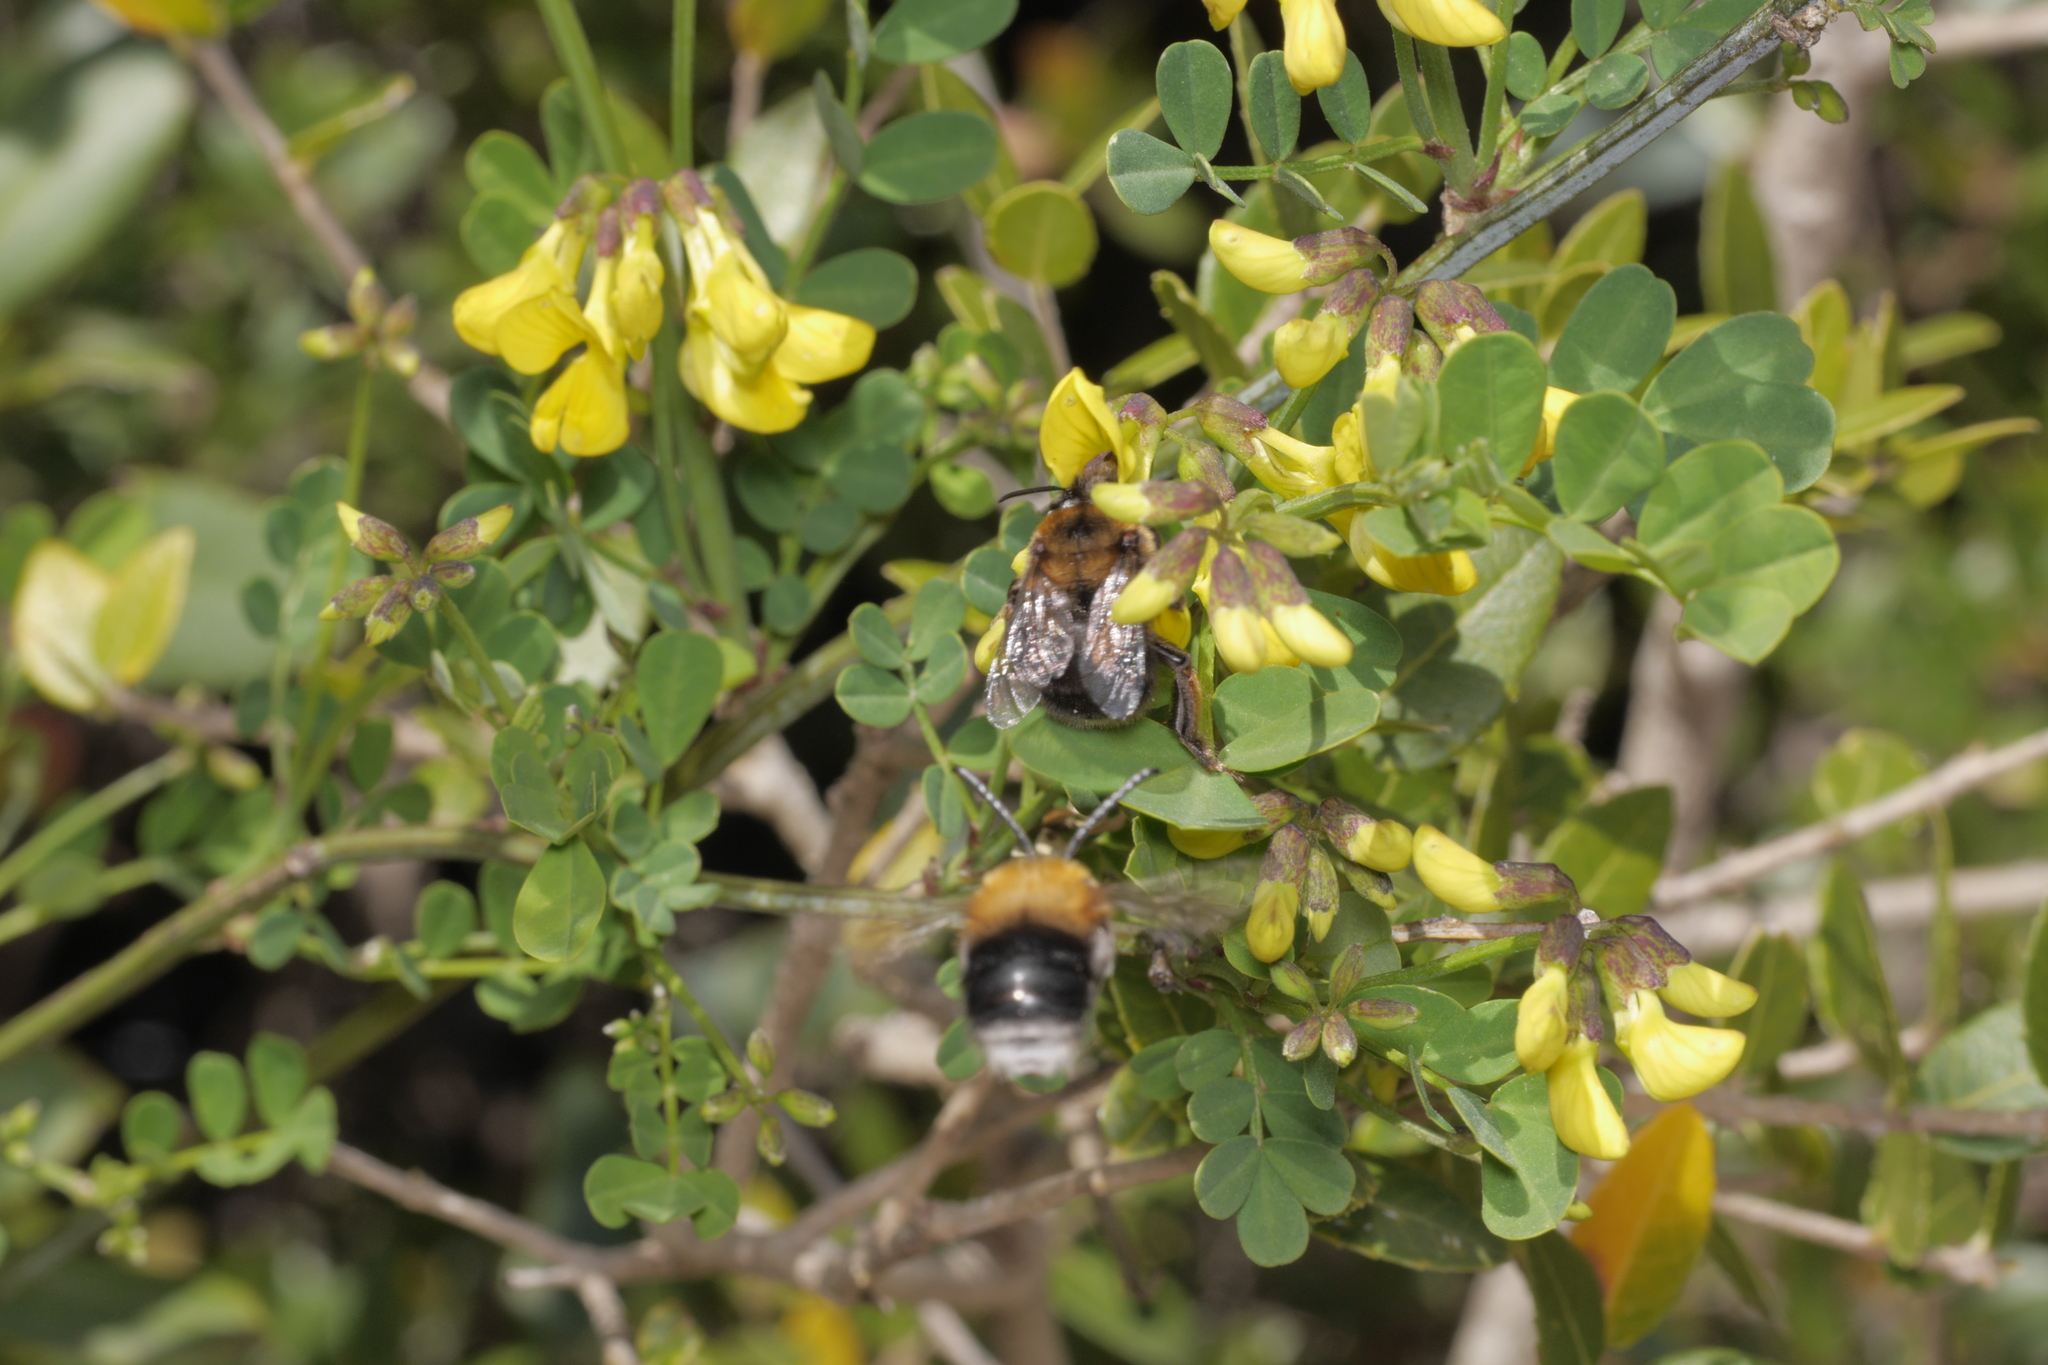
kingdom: Animalia
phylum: Arthropoda
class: Insecta
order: Hymenoptera
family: Apidae
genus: Habropoda
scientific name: Habropoda tarsata
